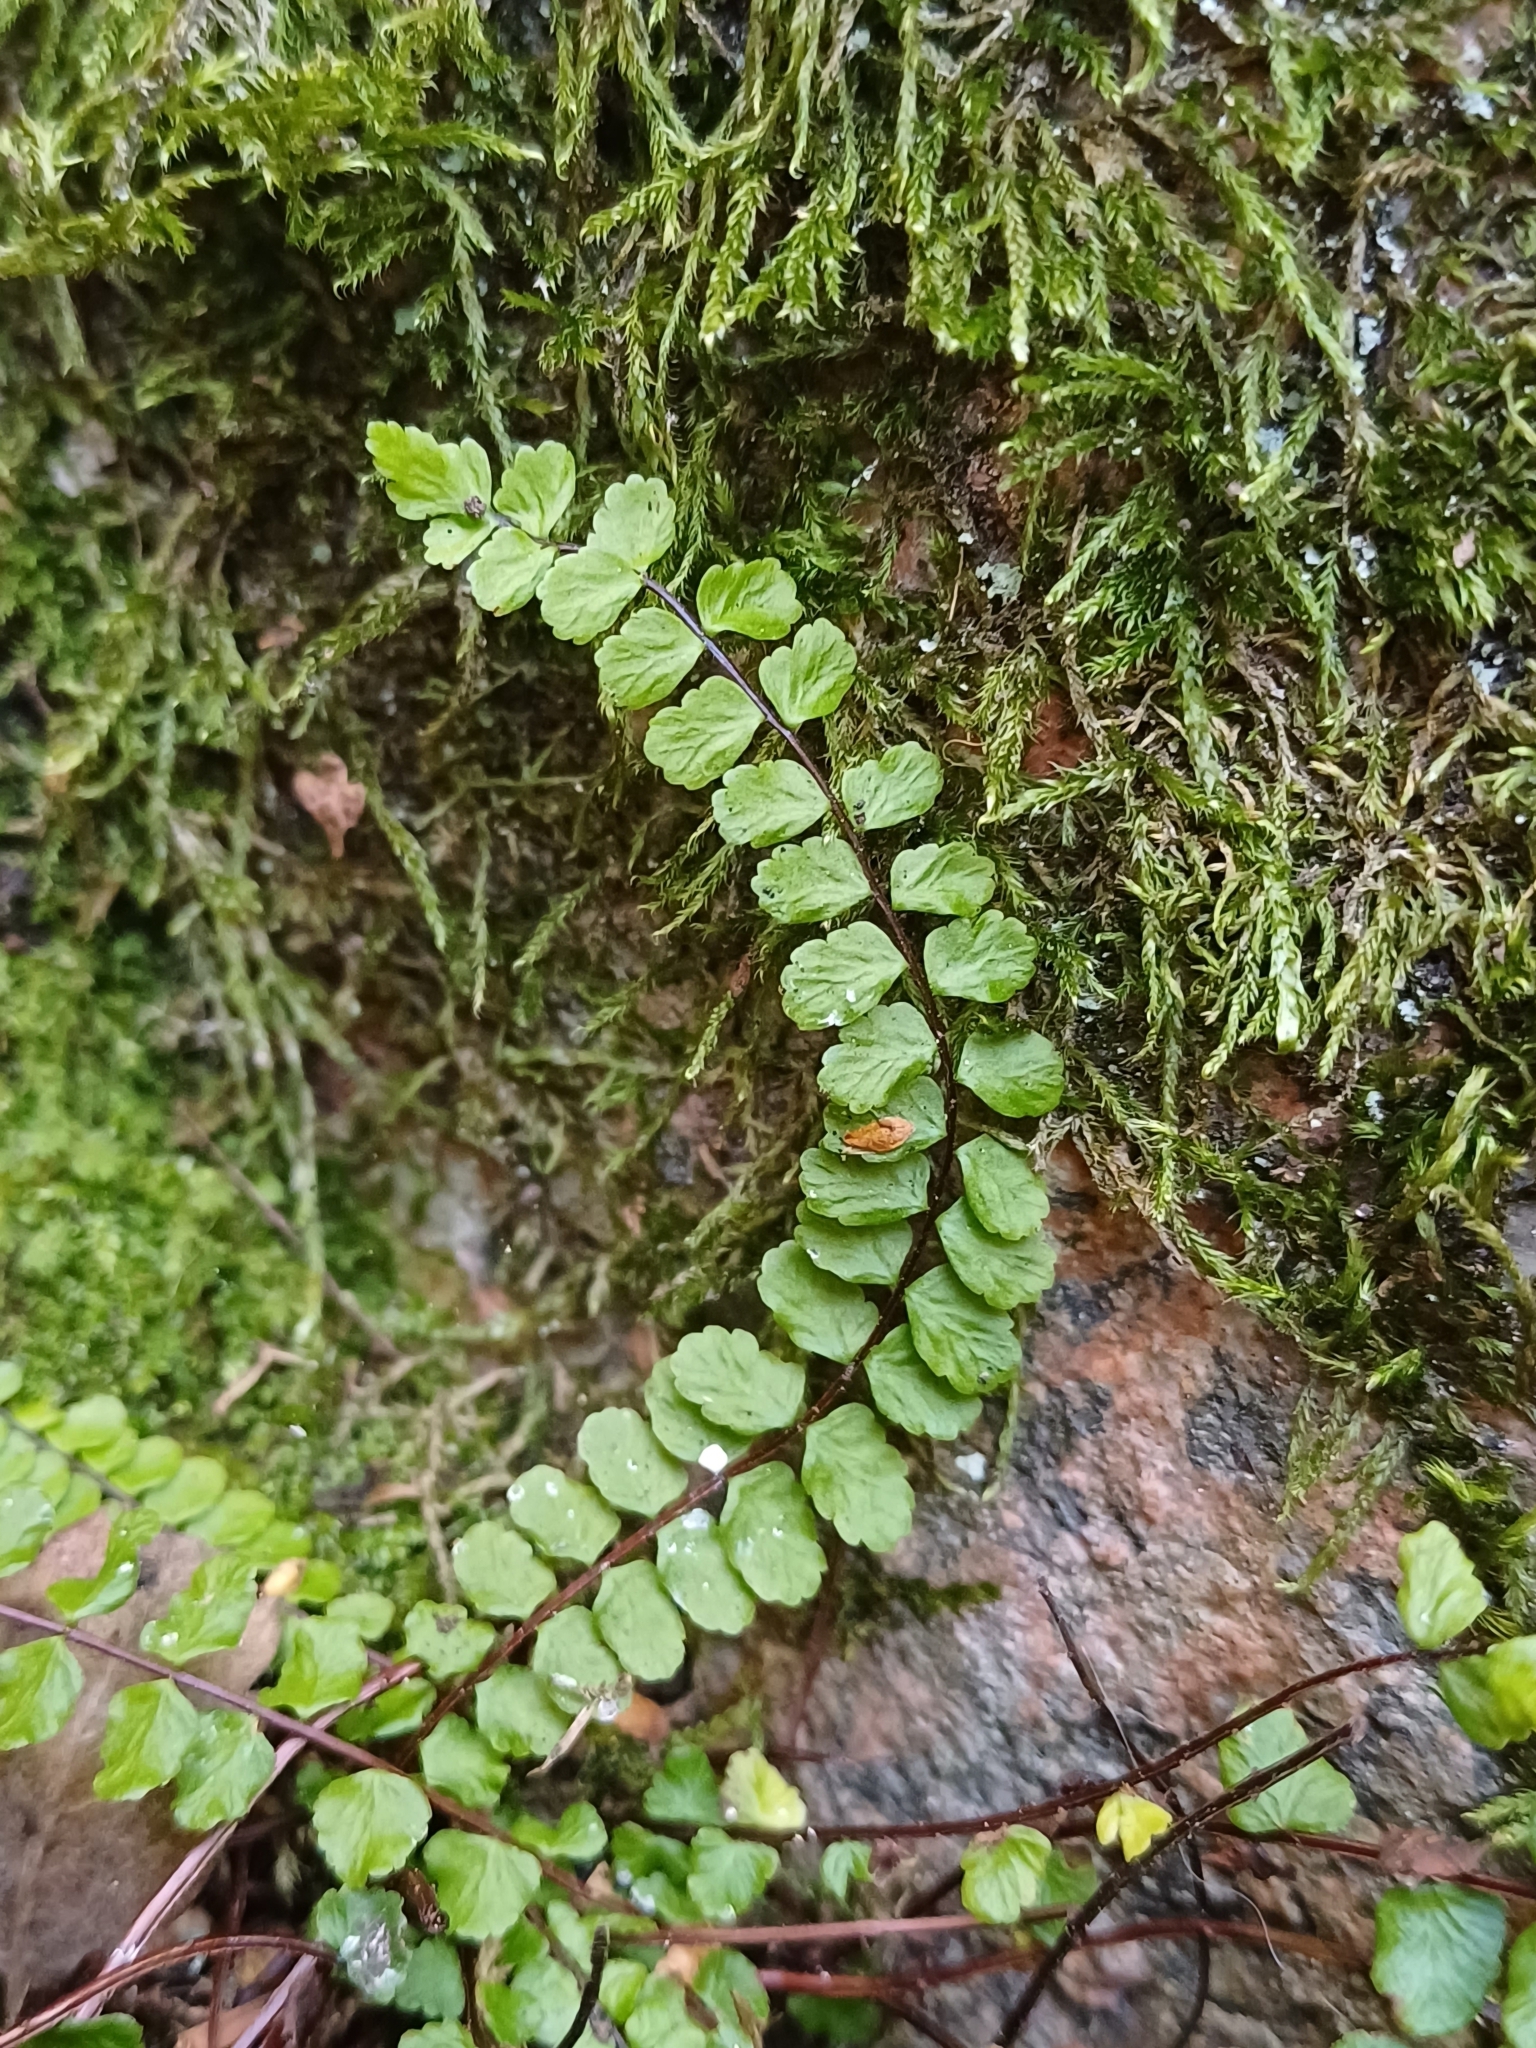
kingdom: Plantae
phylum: Tracheophyta
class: Polypodiopsida
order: Polypodiales
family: Aspleniaceae
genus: Asplenium
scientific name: Asplenium trichomanes
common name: Maidenhair spleenwort
